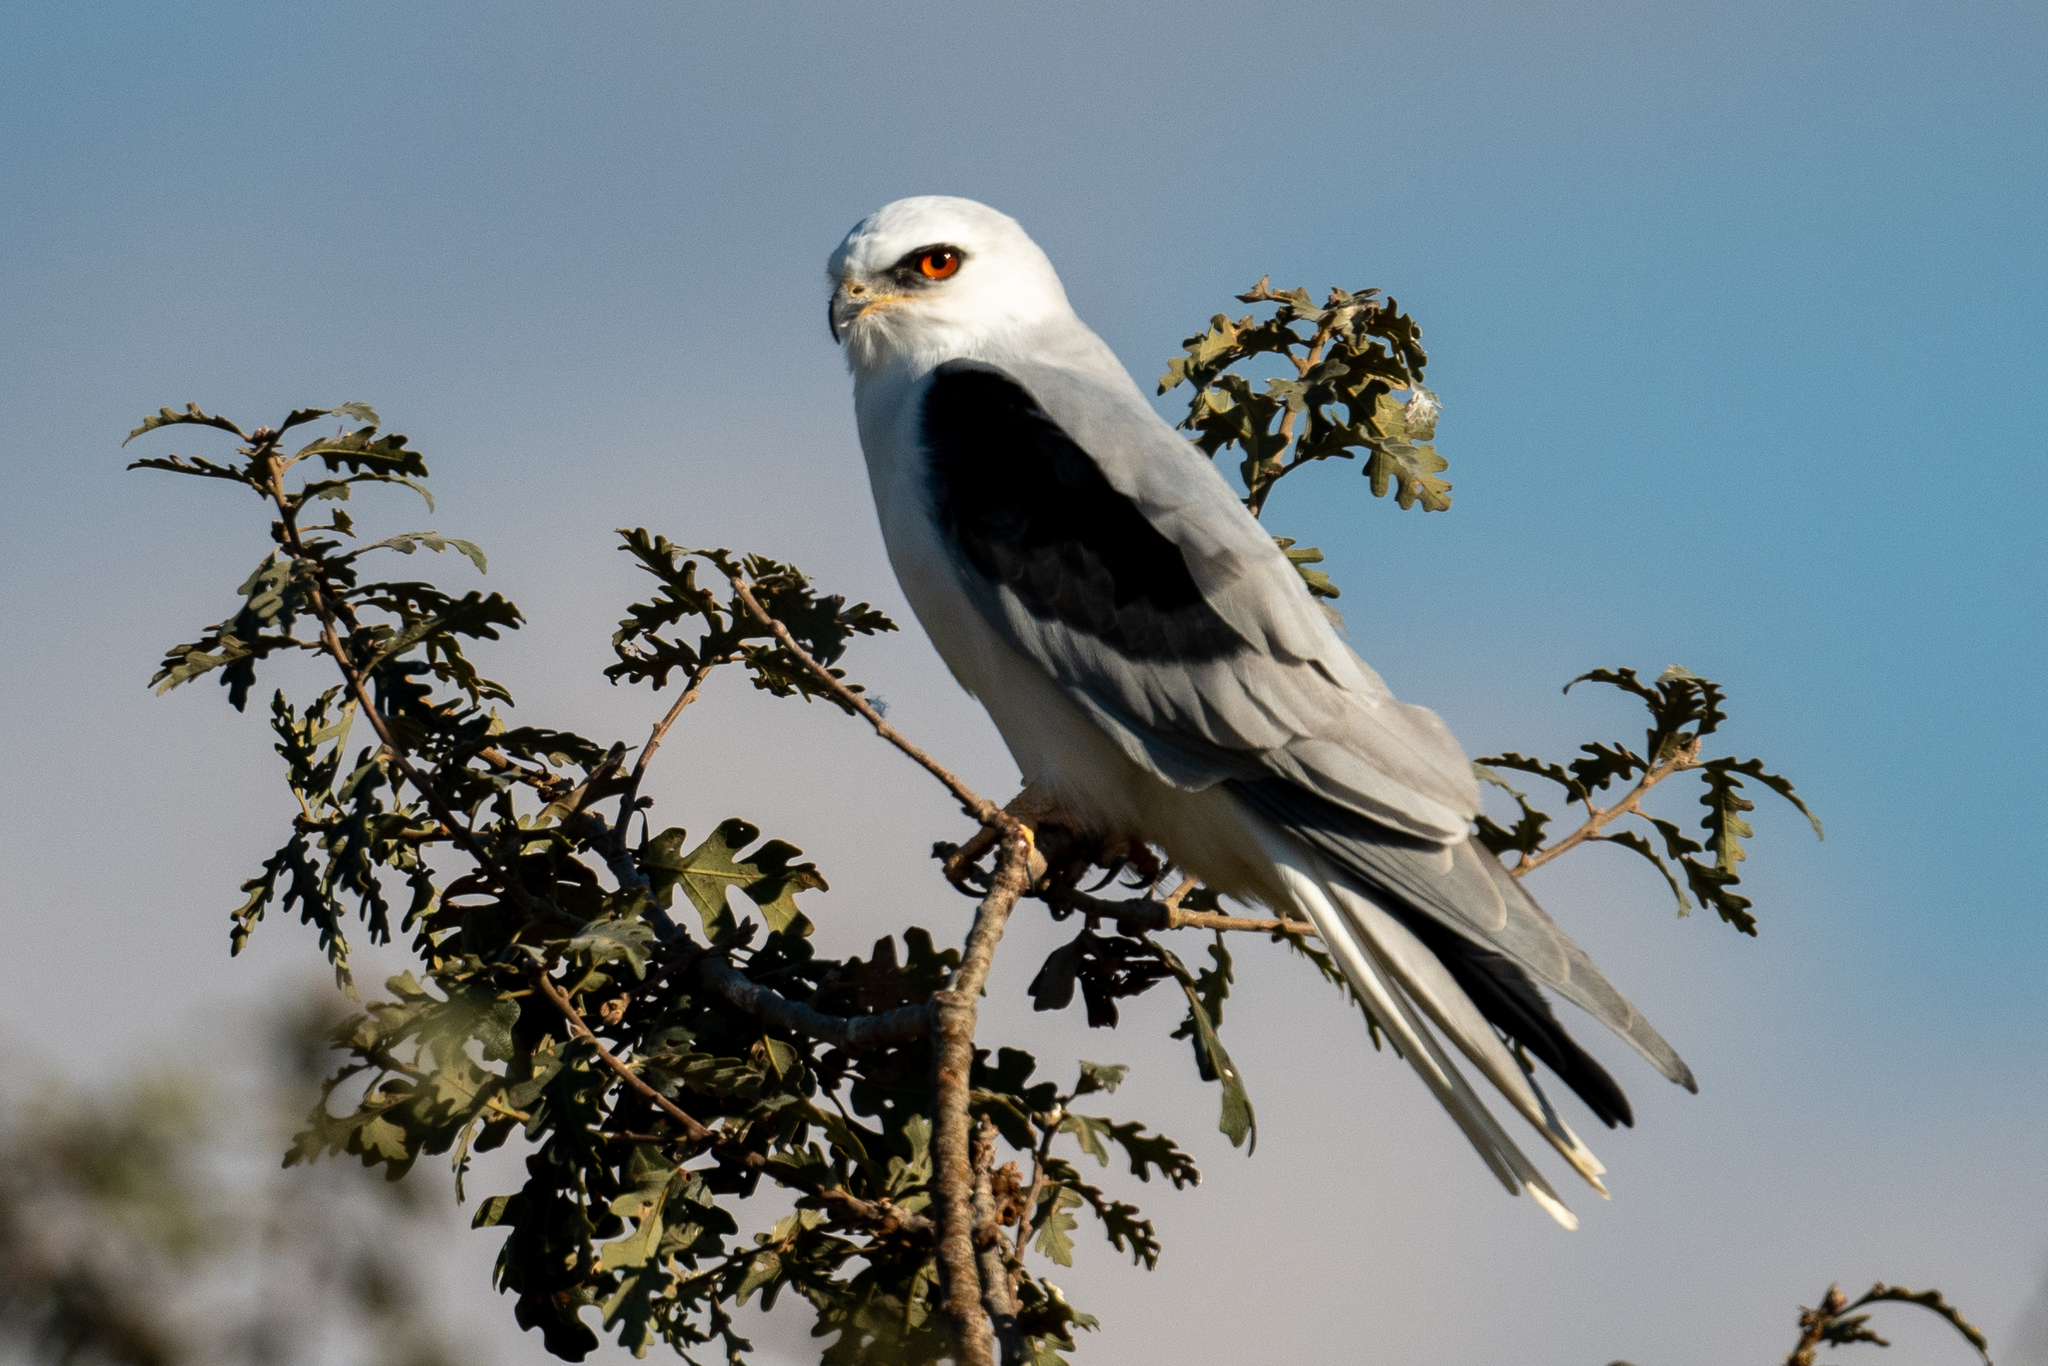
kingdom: Animalia
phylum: Chordata
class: Aves
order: Accipitriformes
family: Accipitridae
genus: Elanus
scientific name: Elanus leucurus
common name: White-tailed kite
